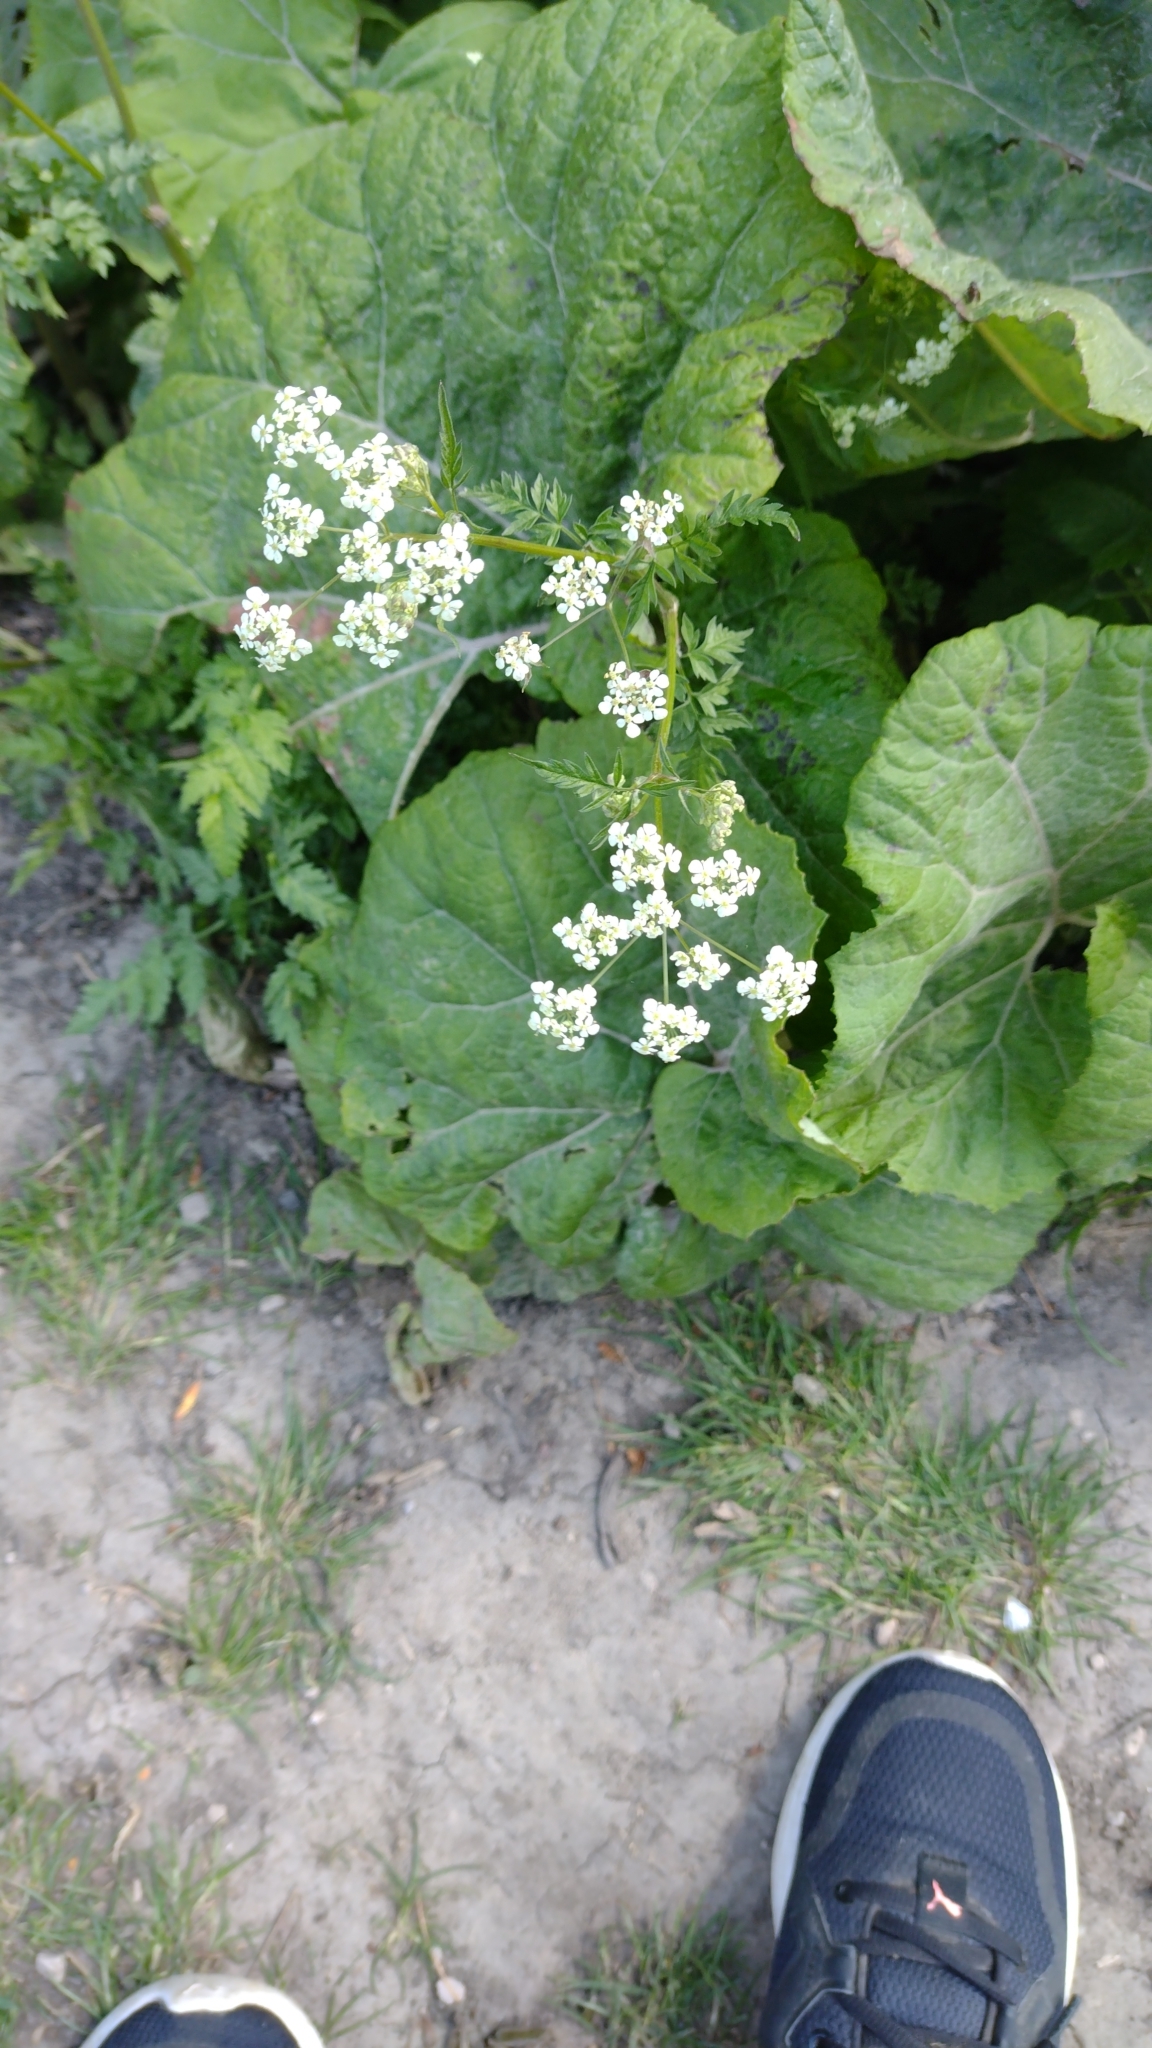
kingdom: Plantae
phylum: Tracheophyta
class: Magnoliopsida
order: Apiales
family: Apiaceae
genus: Anthriscus
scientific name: Anthriscus sylvestris
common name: Cow parsley
